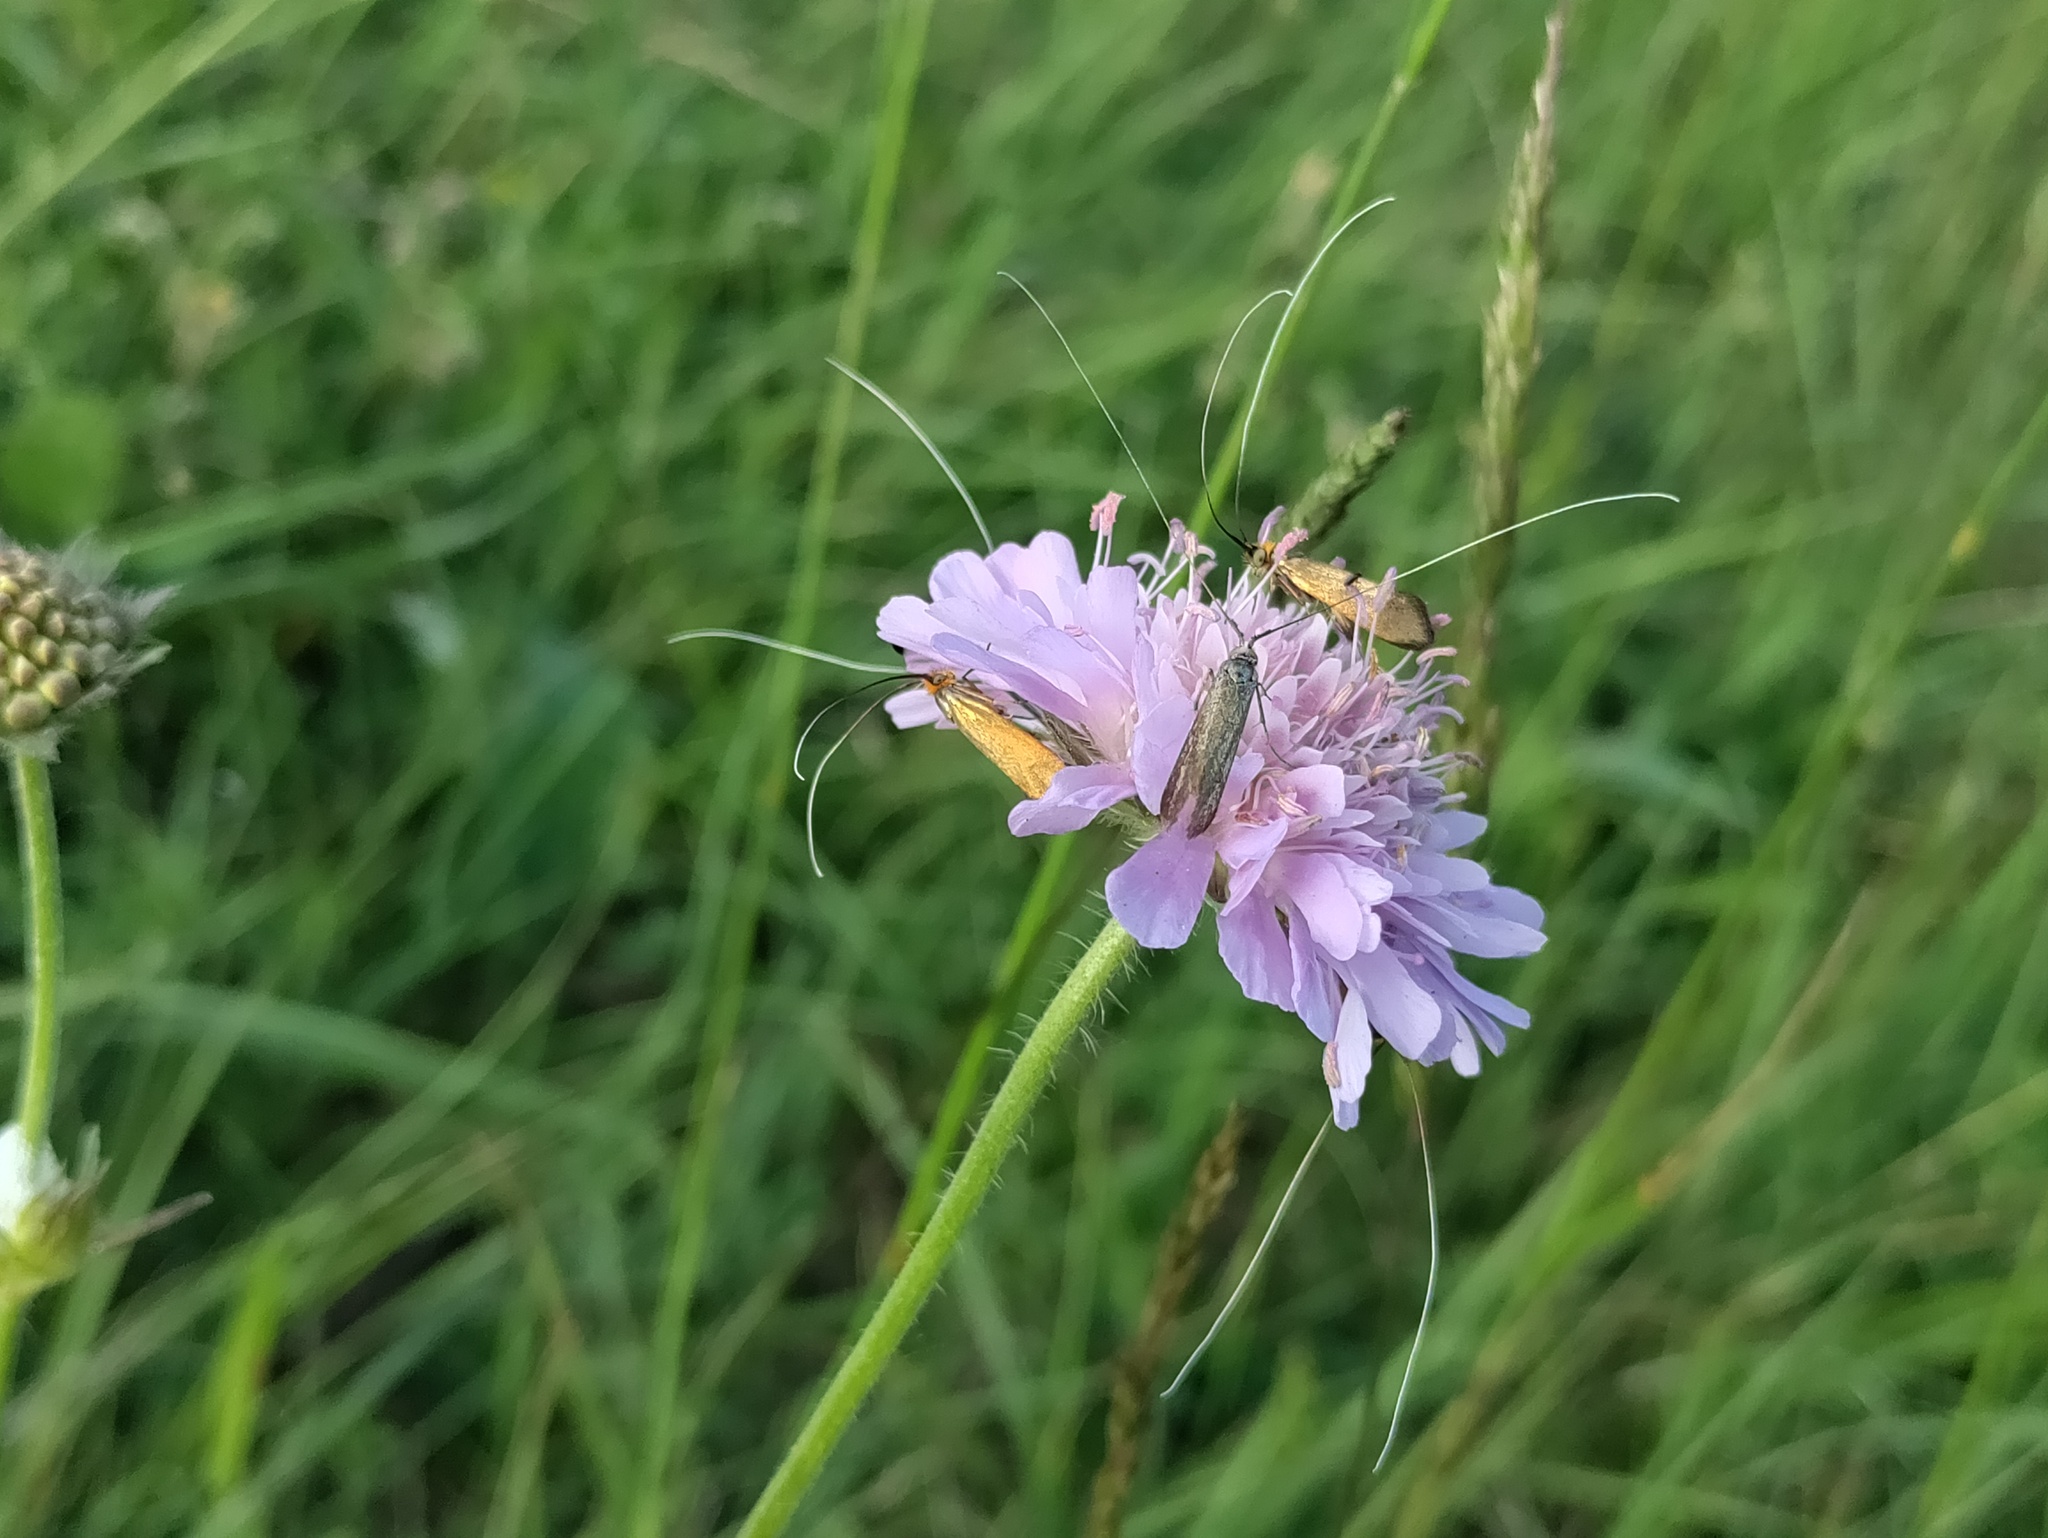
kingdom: Animalia
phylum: Arthropoda
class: Insecta
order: Lepidoptera
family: Adelidae
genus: Nemophora
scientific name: Nemophora metallica
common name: Brassy long-horn
